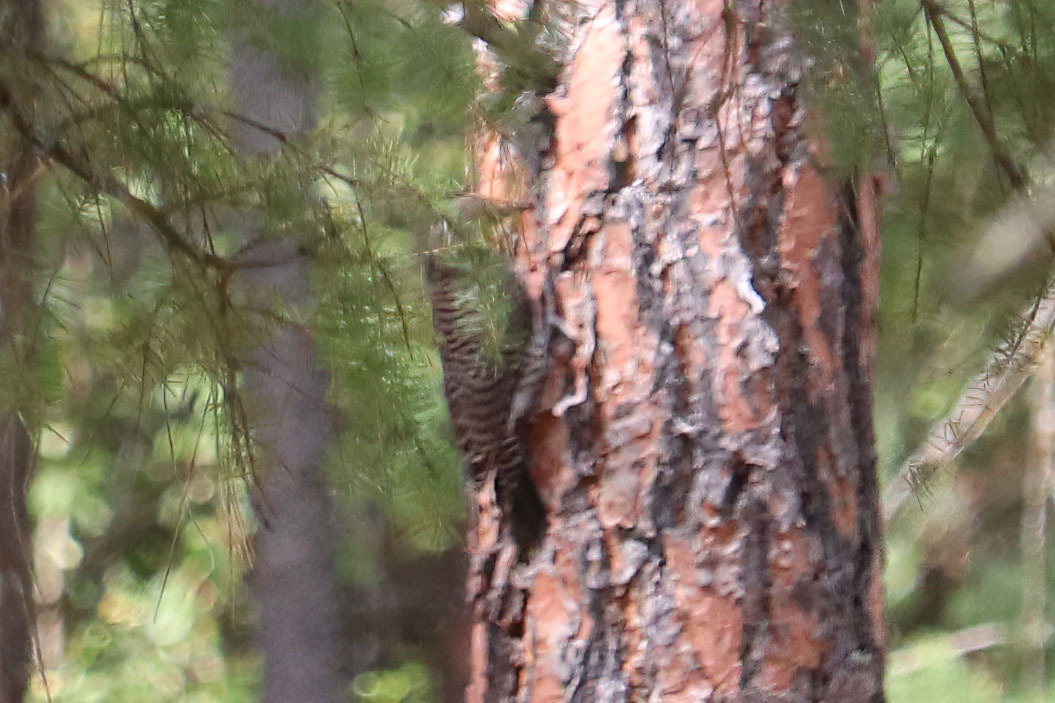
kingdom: Animalia
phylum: Chordata
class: Aves
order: Piciformes
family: Picidae
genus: Colaptes
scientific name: Colaptes auratus
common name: Northern flicker
